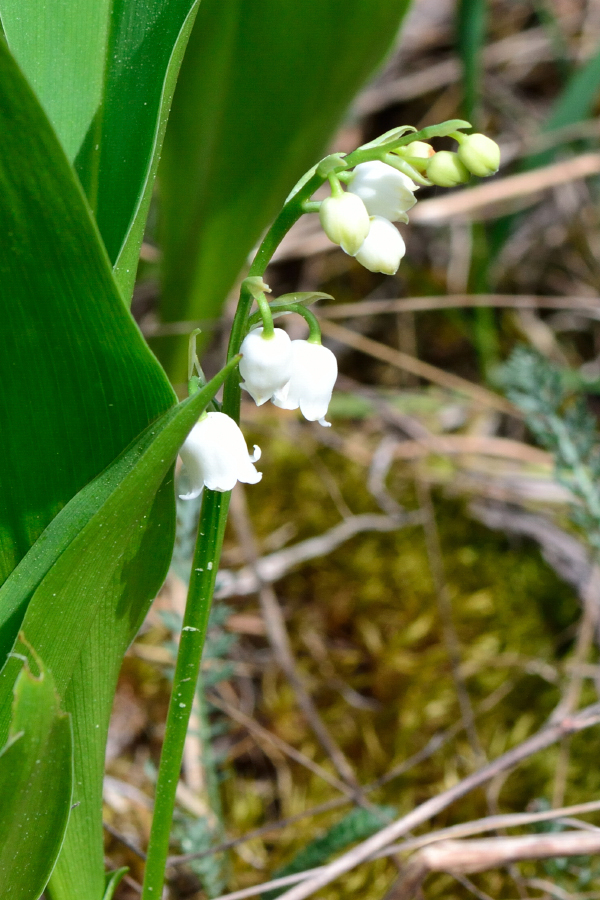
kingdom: Plantae
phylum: Tracheophyta
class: Liliopsida
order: Asparagales
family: Asparagaceae
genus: Convallaria
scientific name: Convallaria majalis
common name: Lily-of-the-valley
